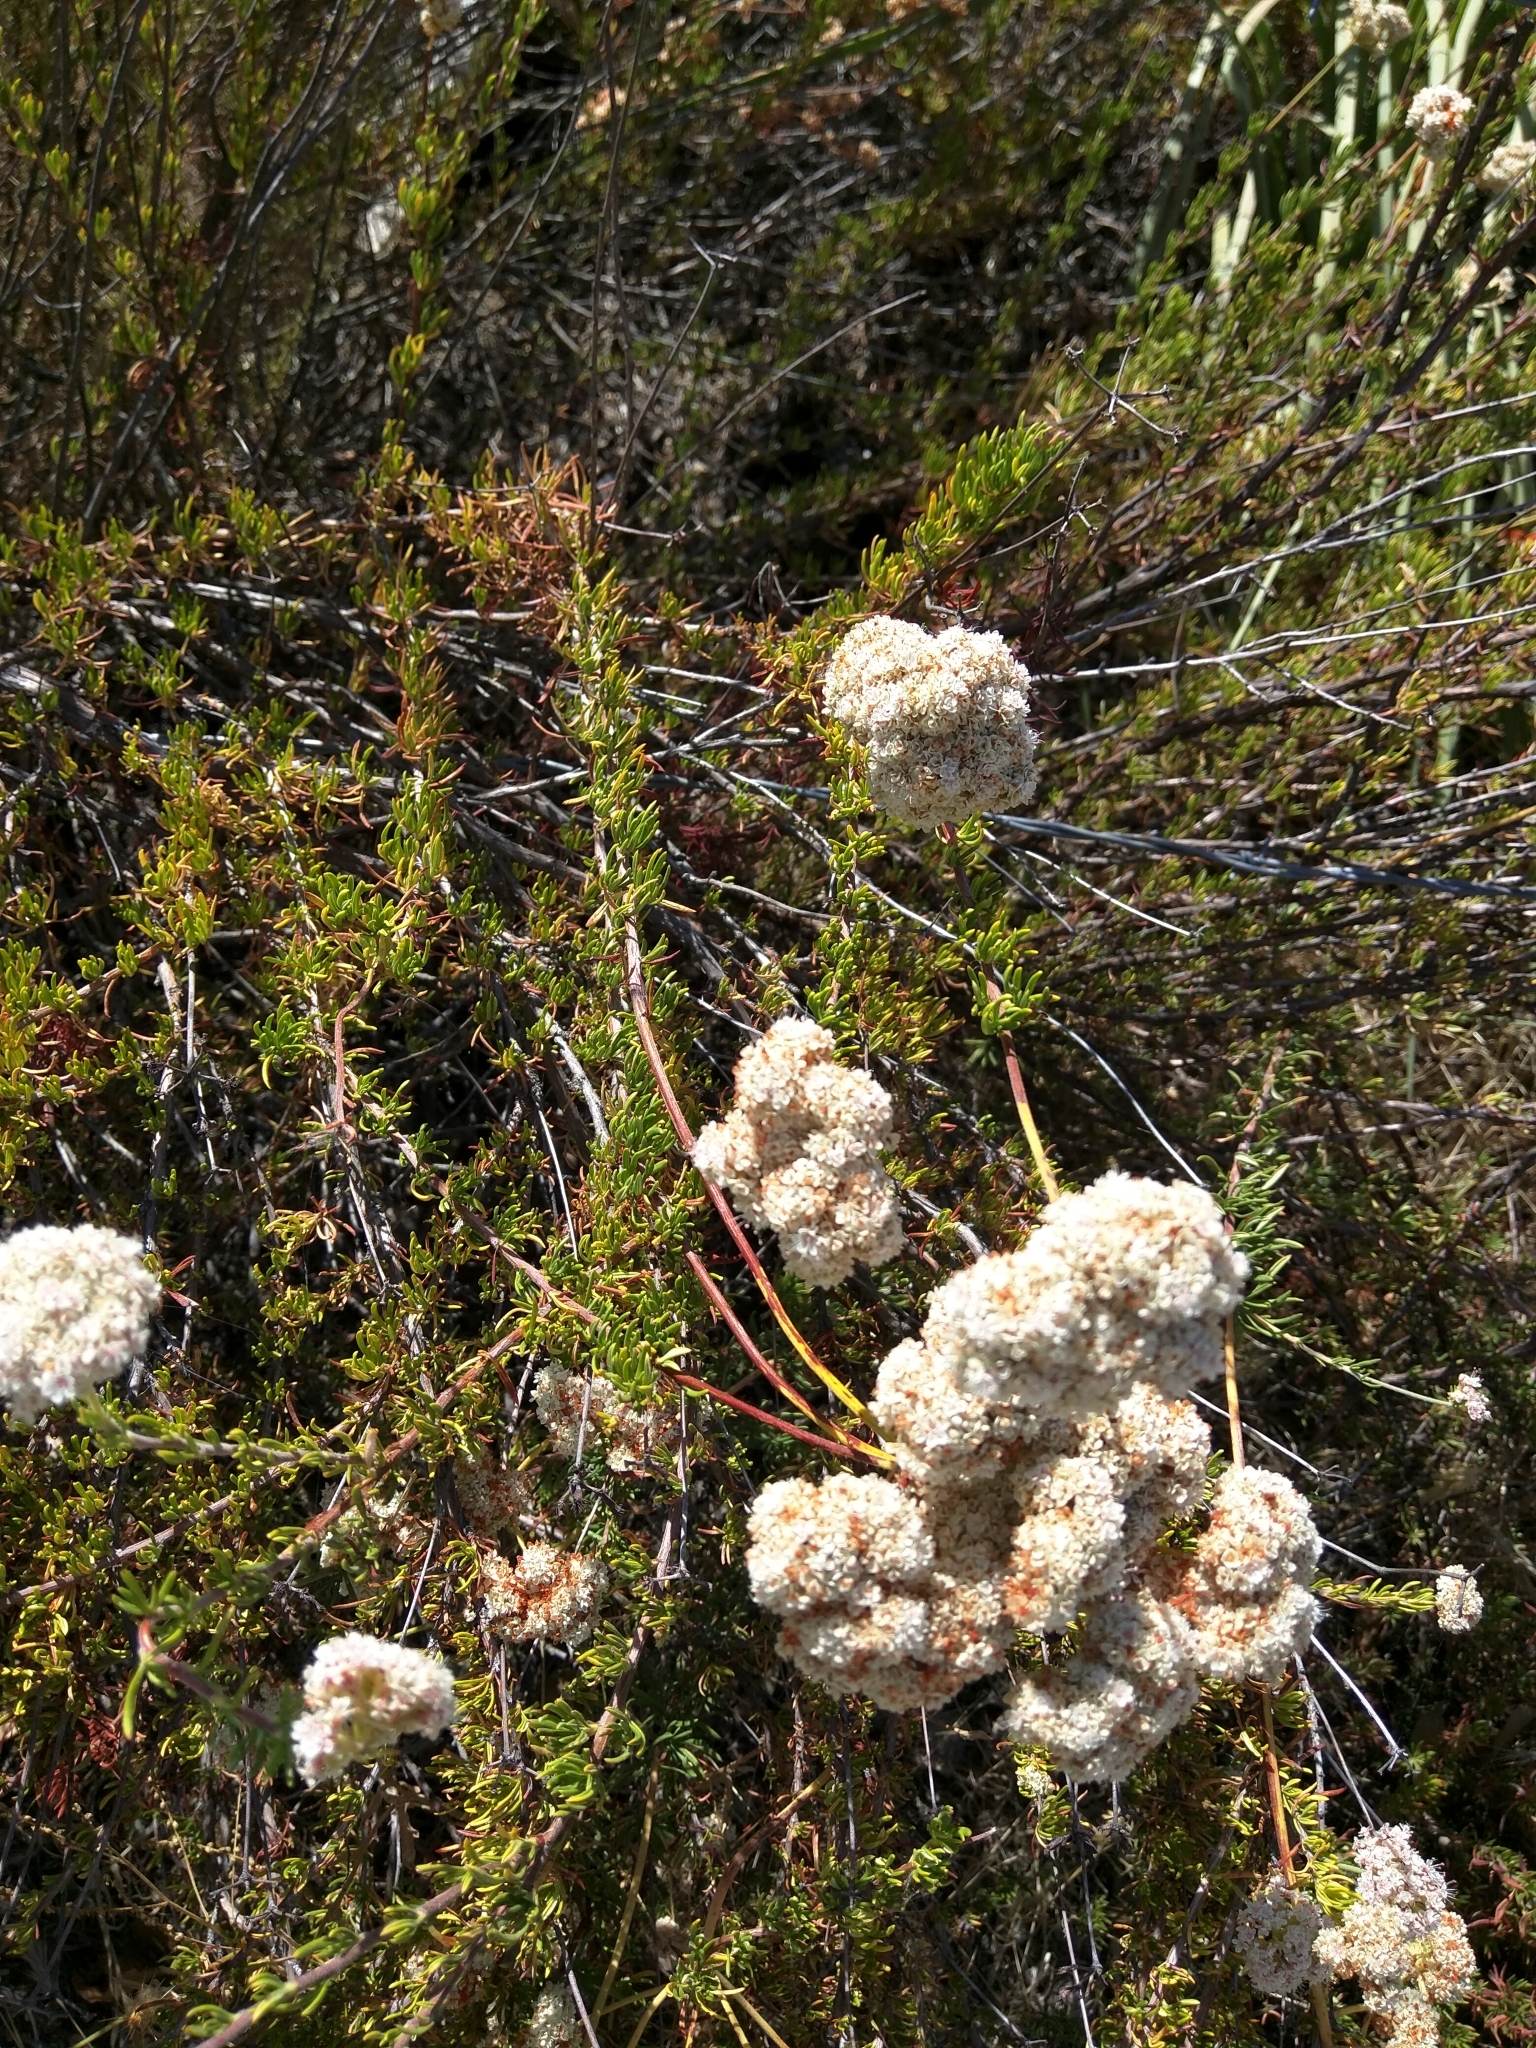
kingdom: Plantae
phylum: Tracheophyta
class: Magnoliopsida
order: Caryophyllales
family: Polygonaceae
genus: Eriogonum
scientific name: Eriogonum fasciculatum
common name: California wild buckwheat
